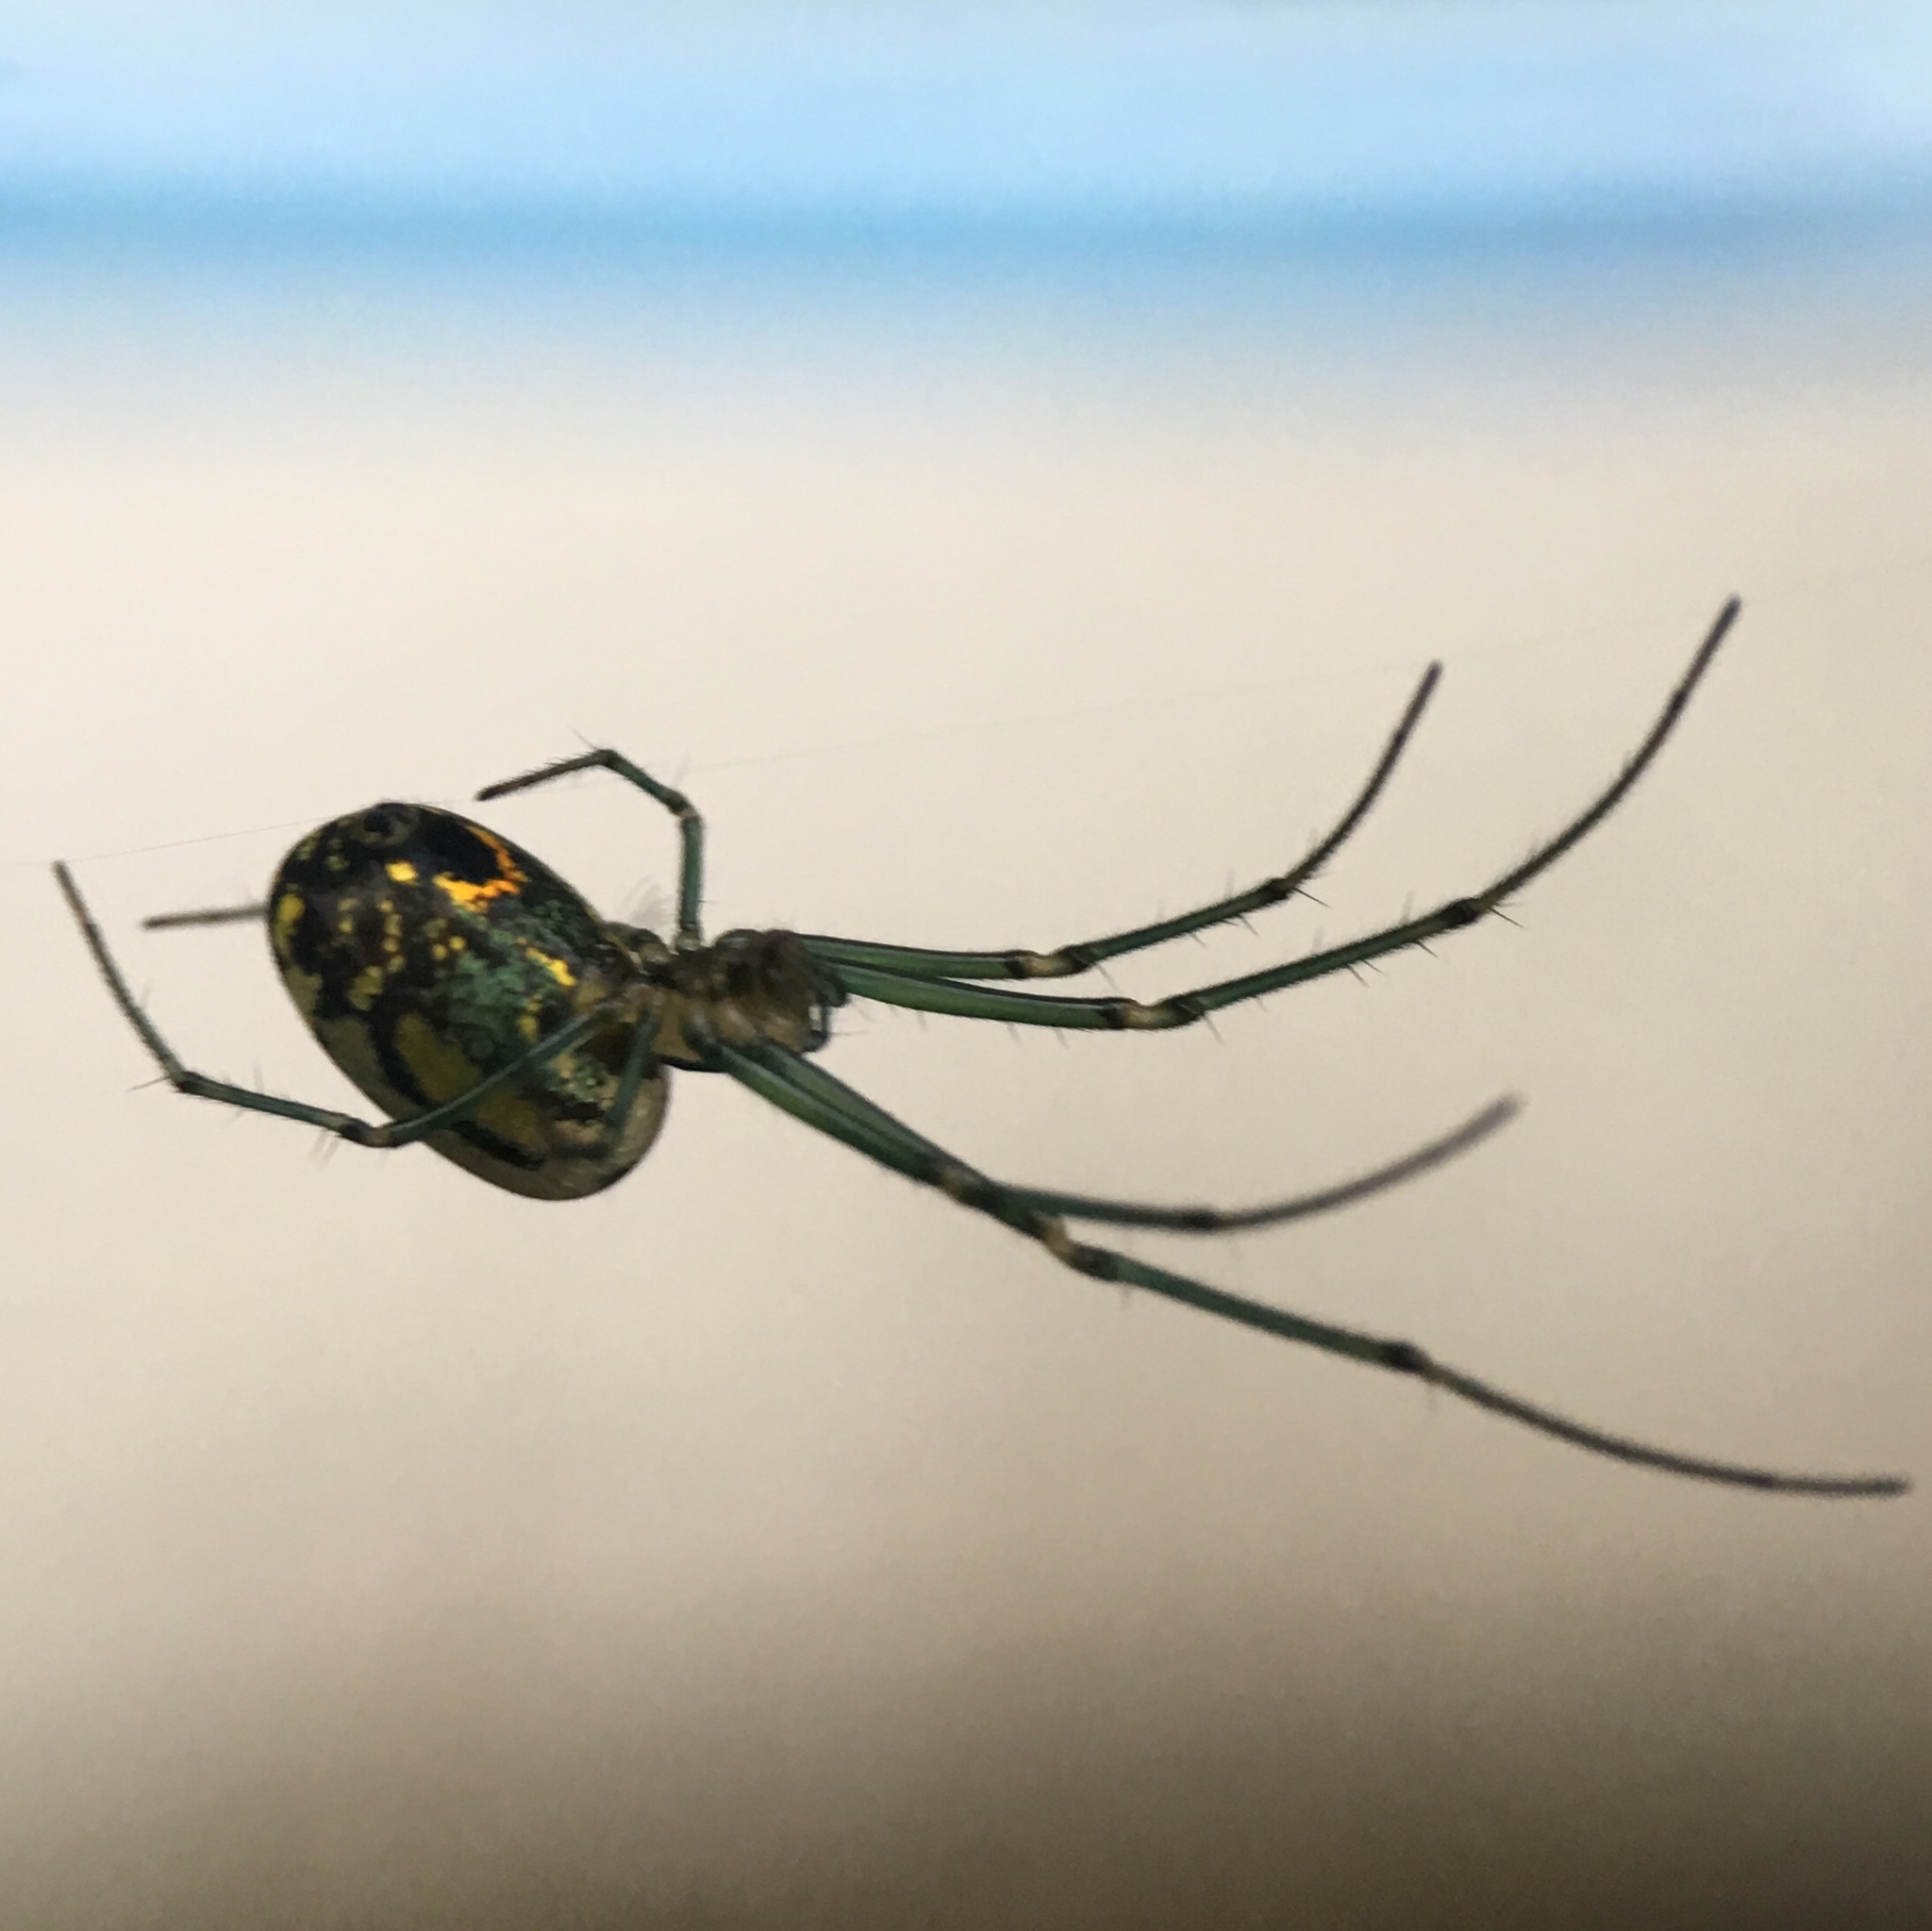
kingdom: Animalia
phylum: Arthropoda
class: Arachnida
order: Araneae
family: Tetragnathidae
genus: Leucauge
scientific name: Leucauge venusta
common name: Longjawed orb weavers
